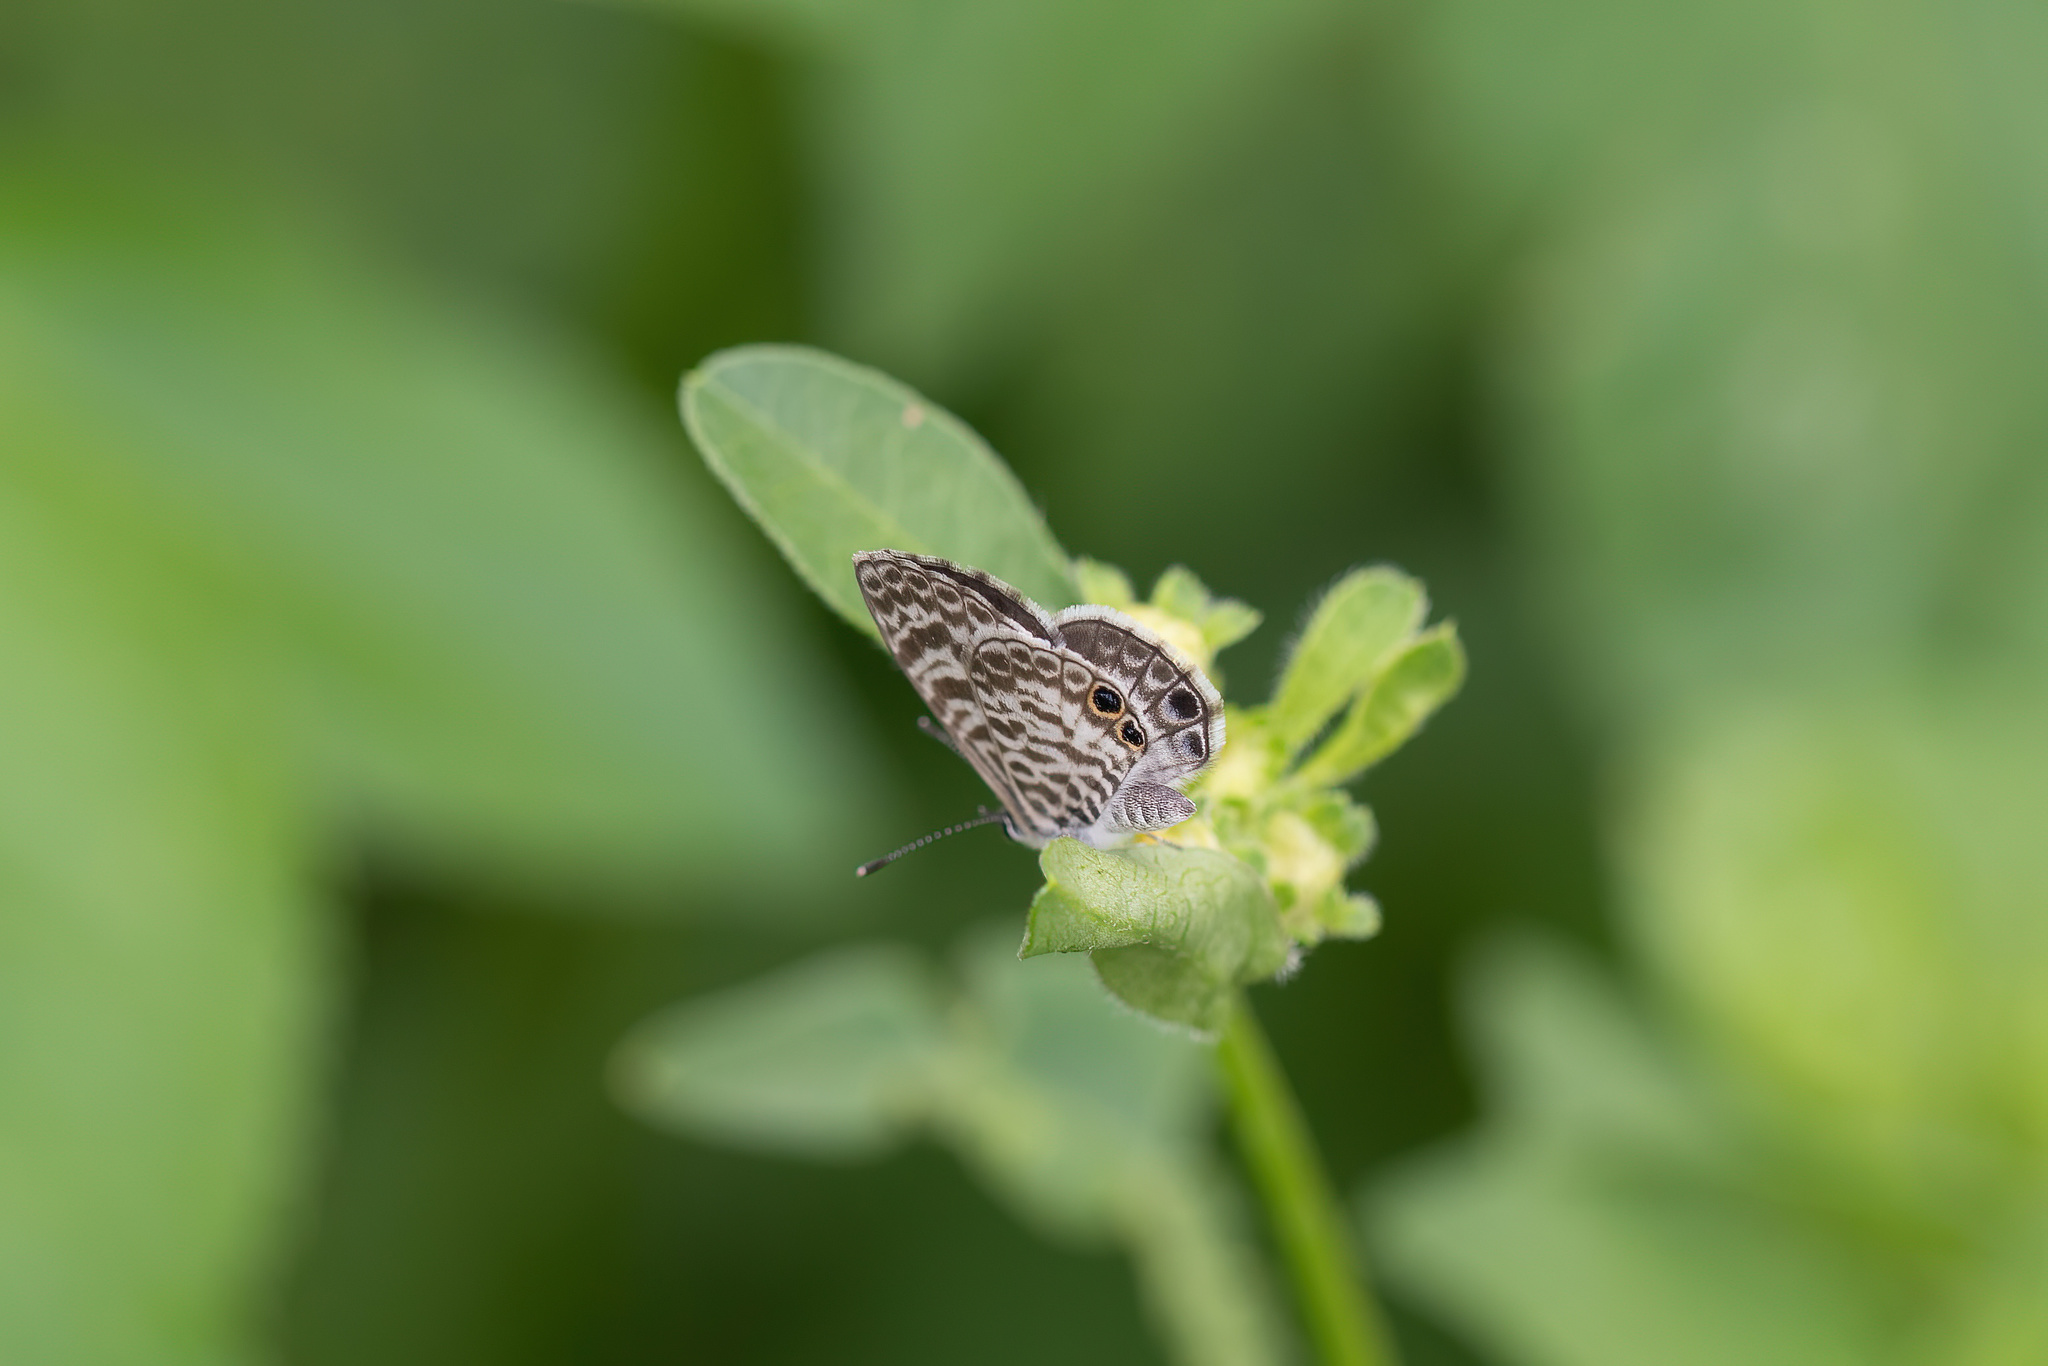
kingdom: Animalia
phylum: Arthropoda
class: Insecta
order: Lepidoptera
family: Lycaenidae
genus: Leptotes
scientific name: Leptotes cassius
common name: Cassius blue
